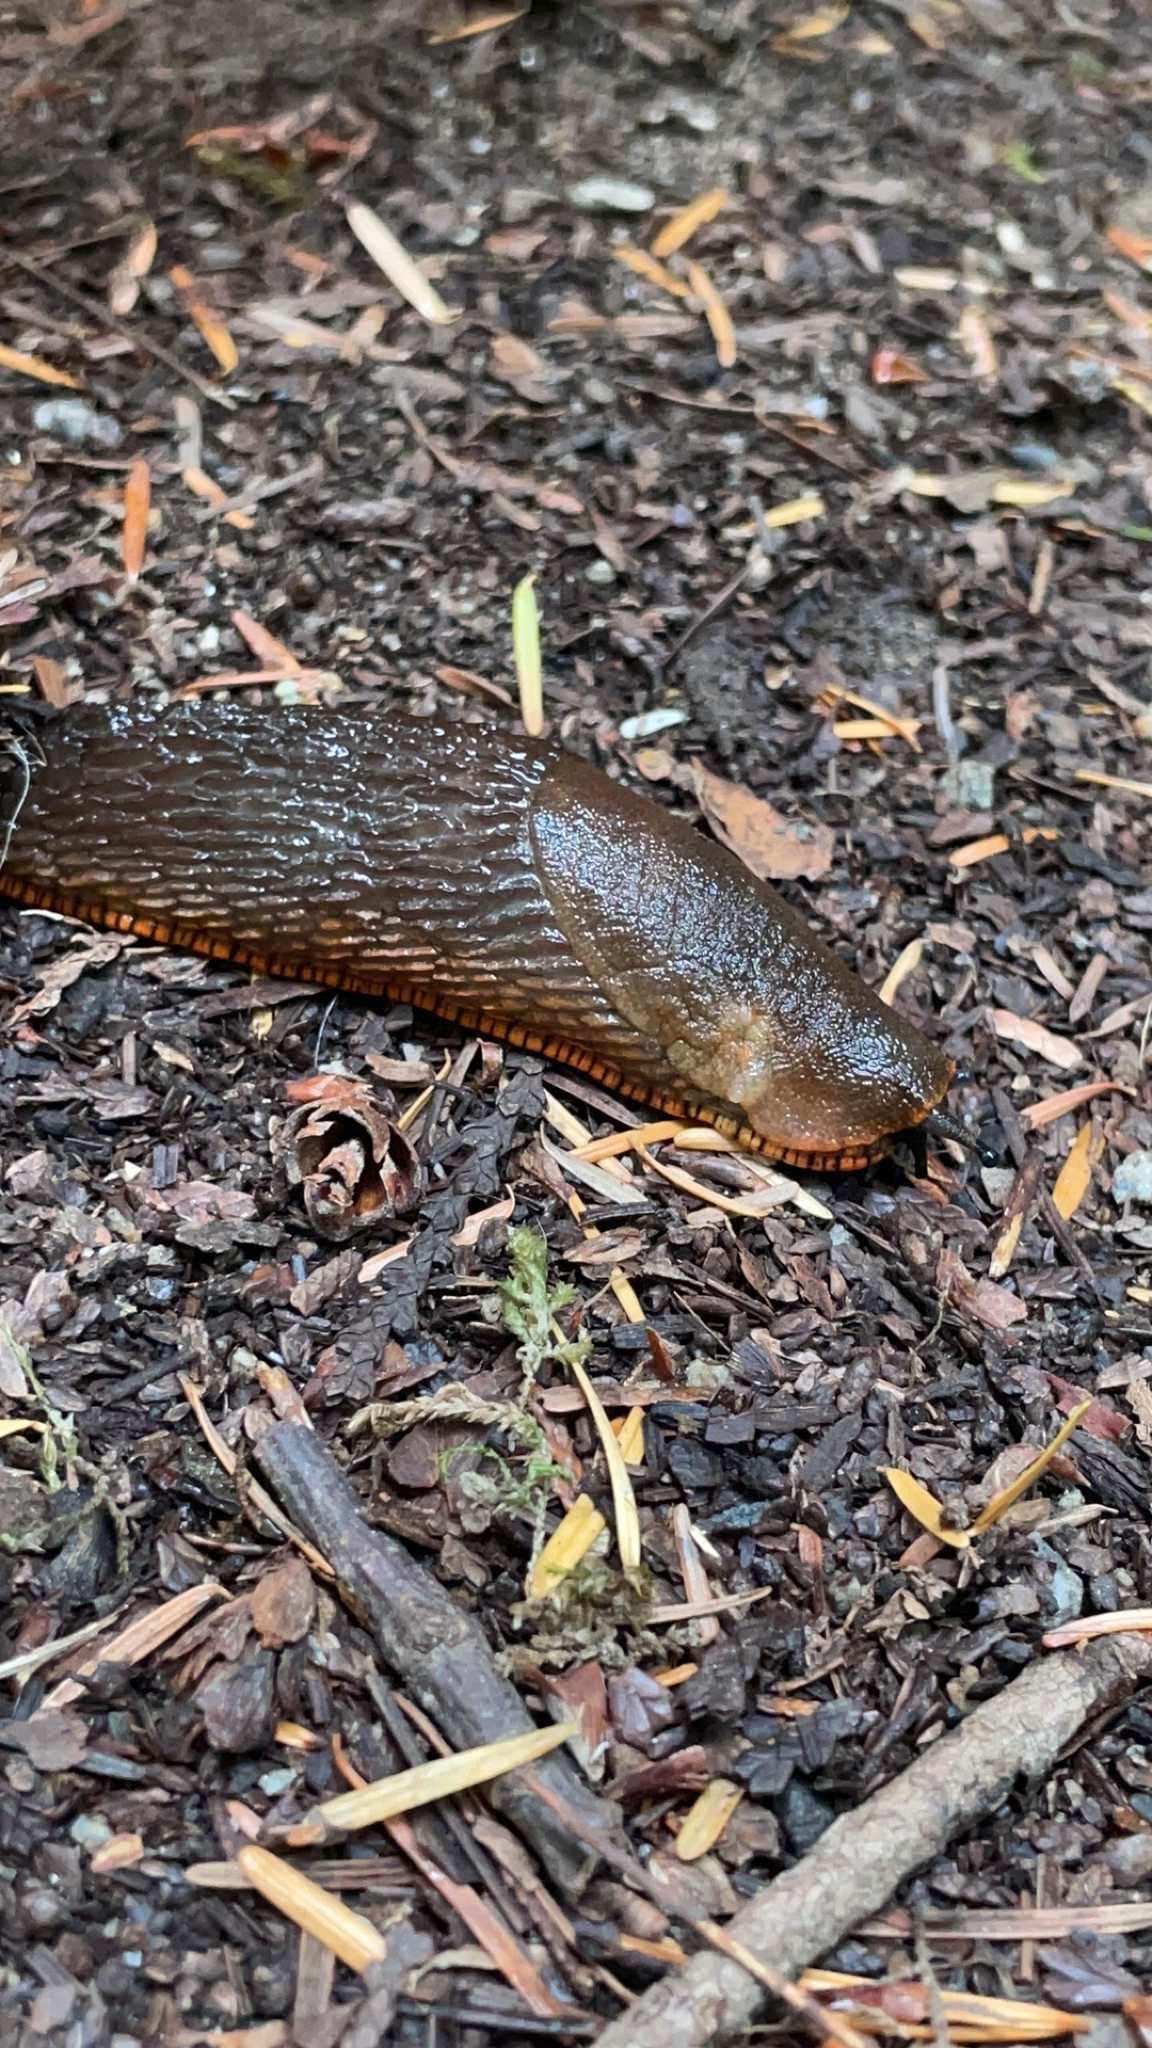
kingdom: Animalia
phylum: Mollusca
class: Gastropoda
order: Stylommatophora
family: Arionidae
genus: Arion
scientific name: Arion
